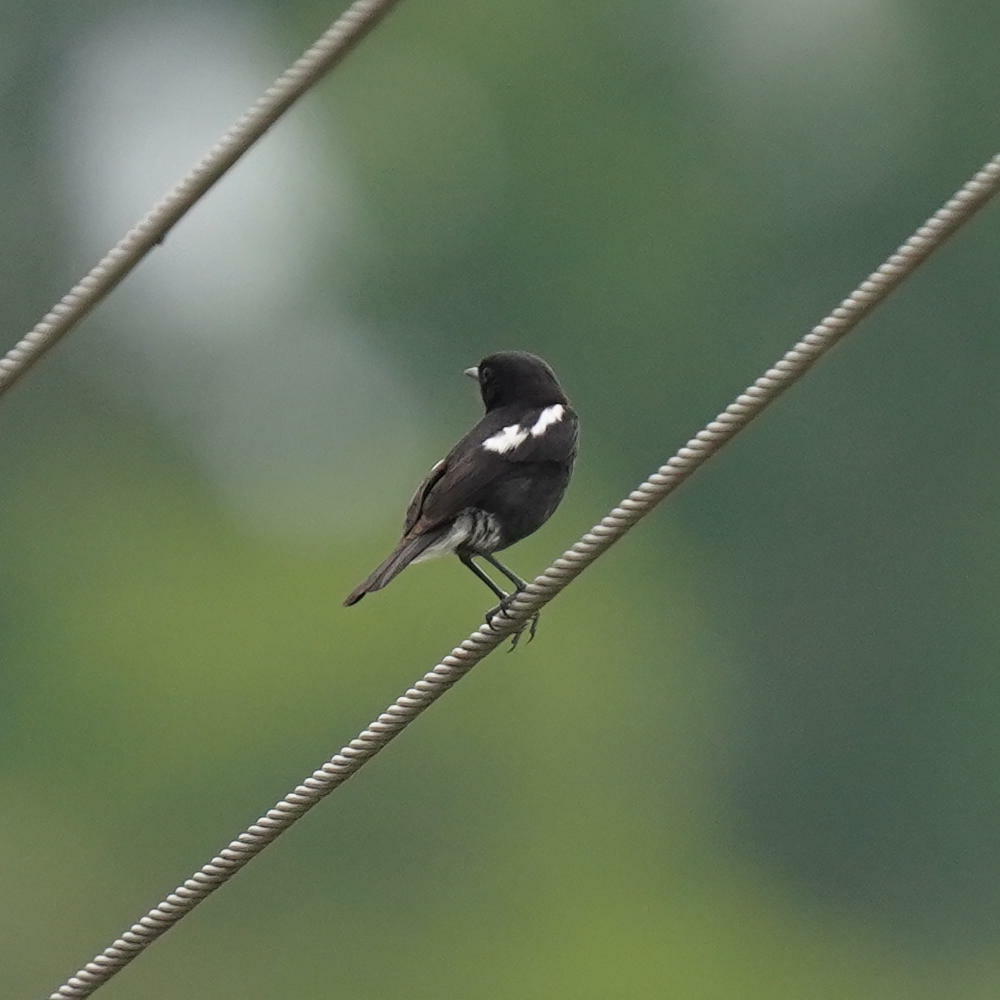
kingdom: Animalia
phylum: Chordata
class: Aves
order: Passeriformes
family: Muscicapidae
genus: Saxicola
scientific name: Saxicola caprata
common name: Pied bush chat
